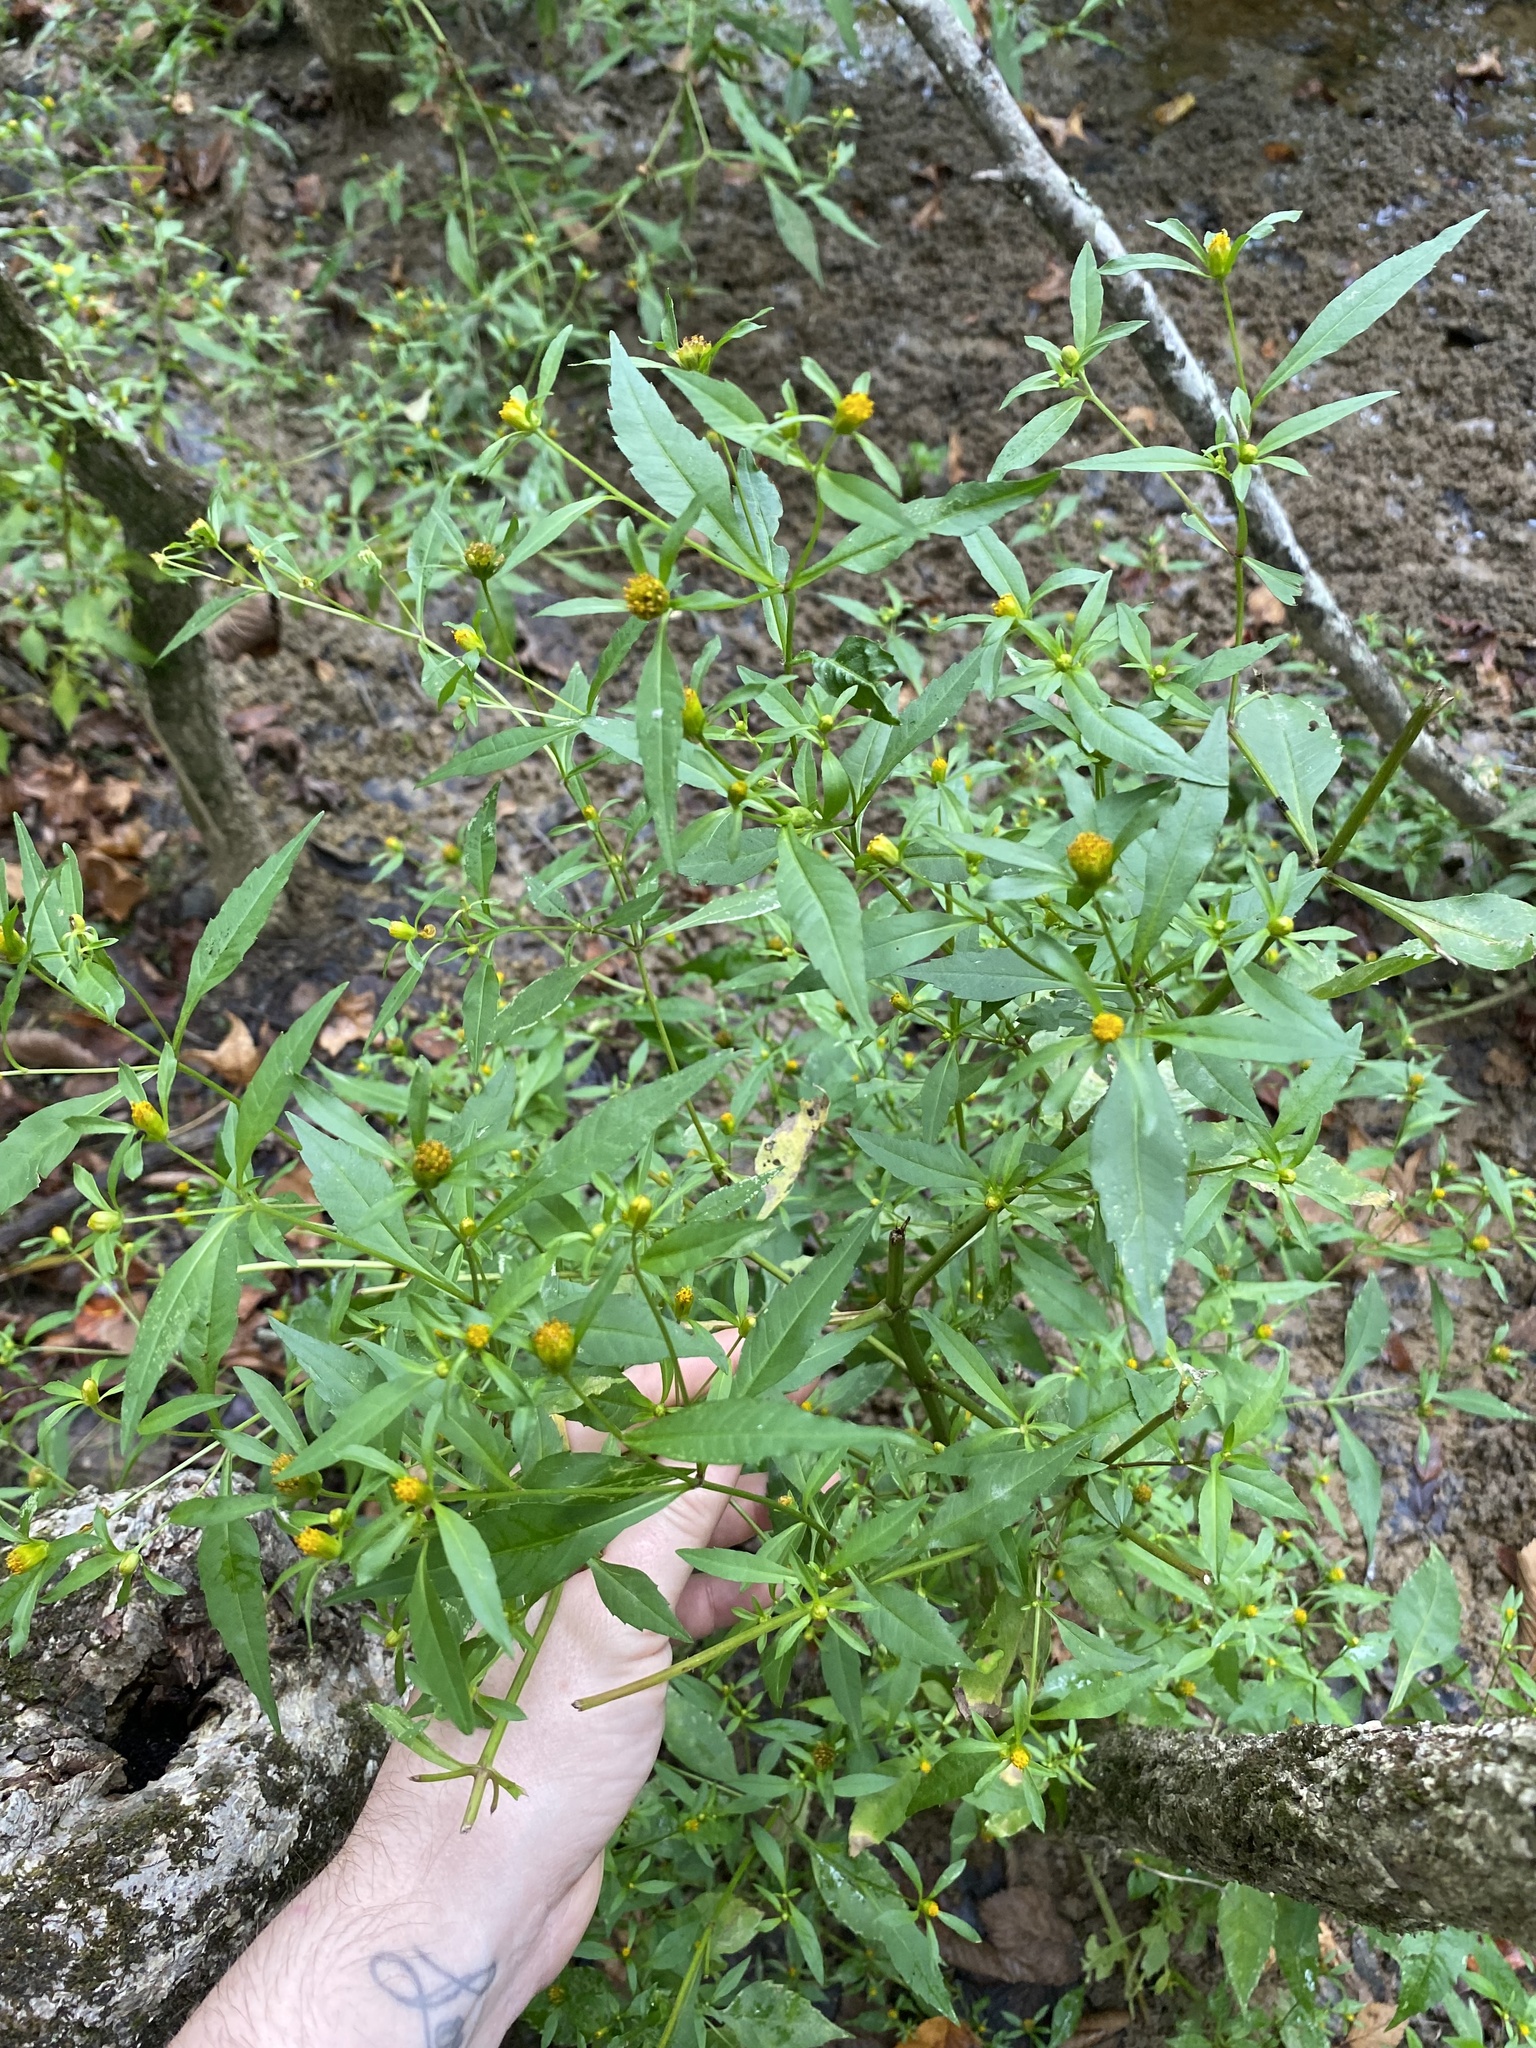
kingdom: Plantae
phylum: Tracheophyta
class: Magnoliopsida
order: Asterales
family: Asteraceae
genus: Bidens
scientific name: Bidens connata
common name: London bur-marigold
